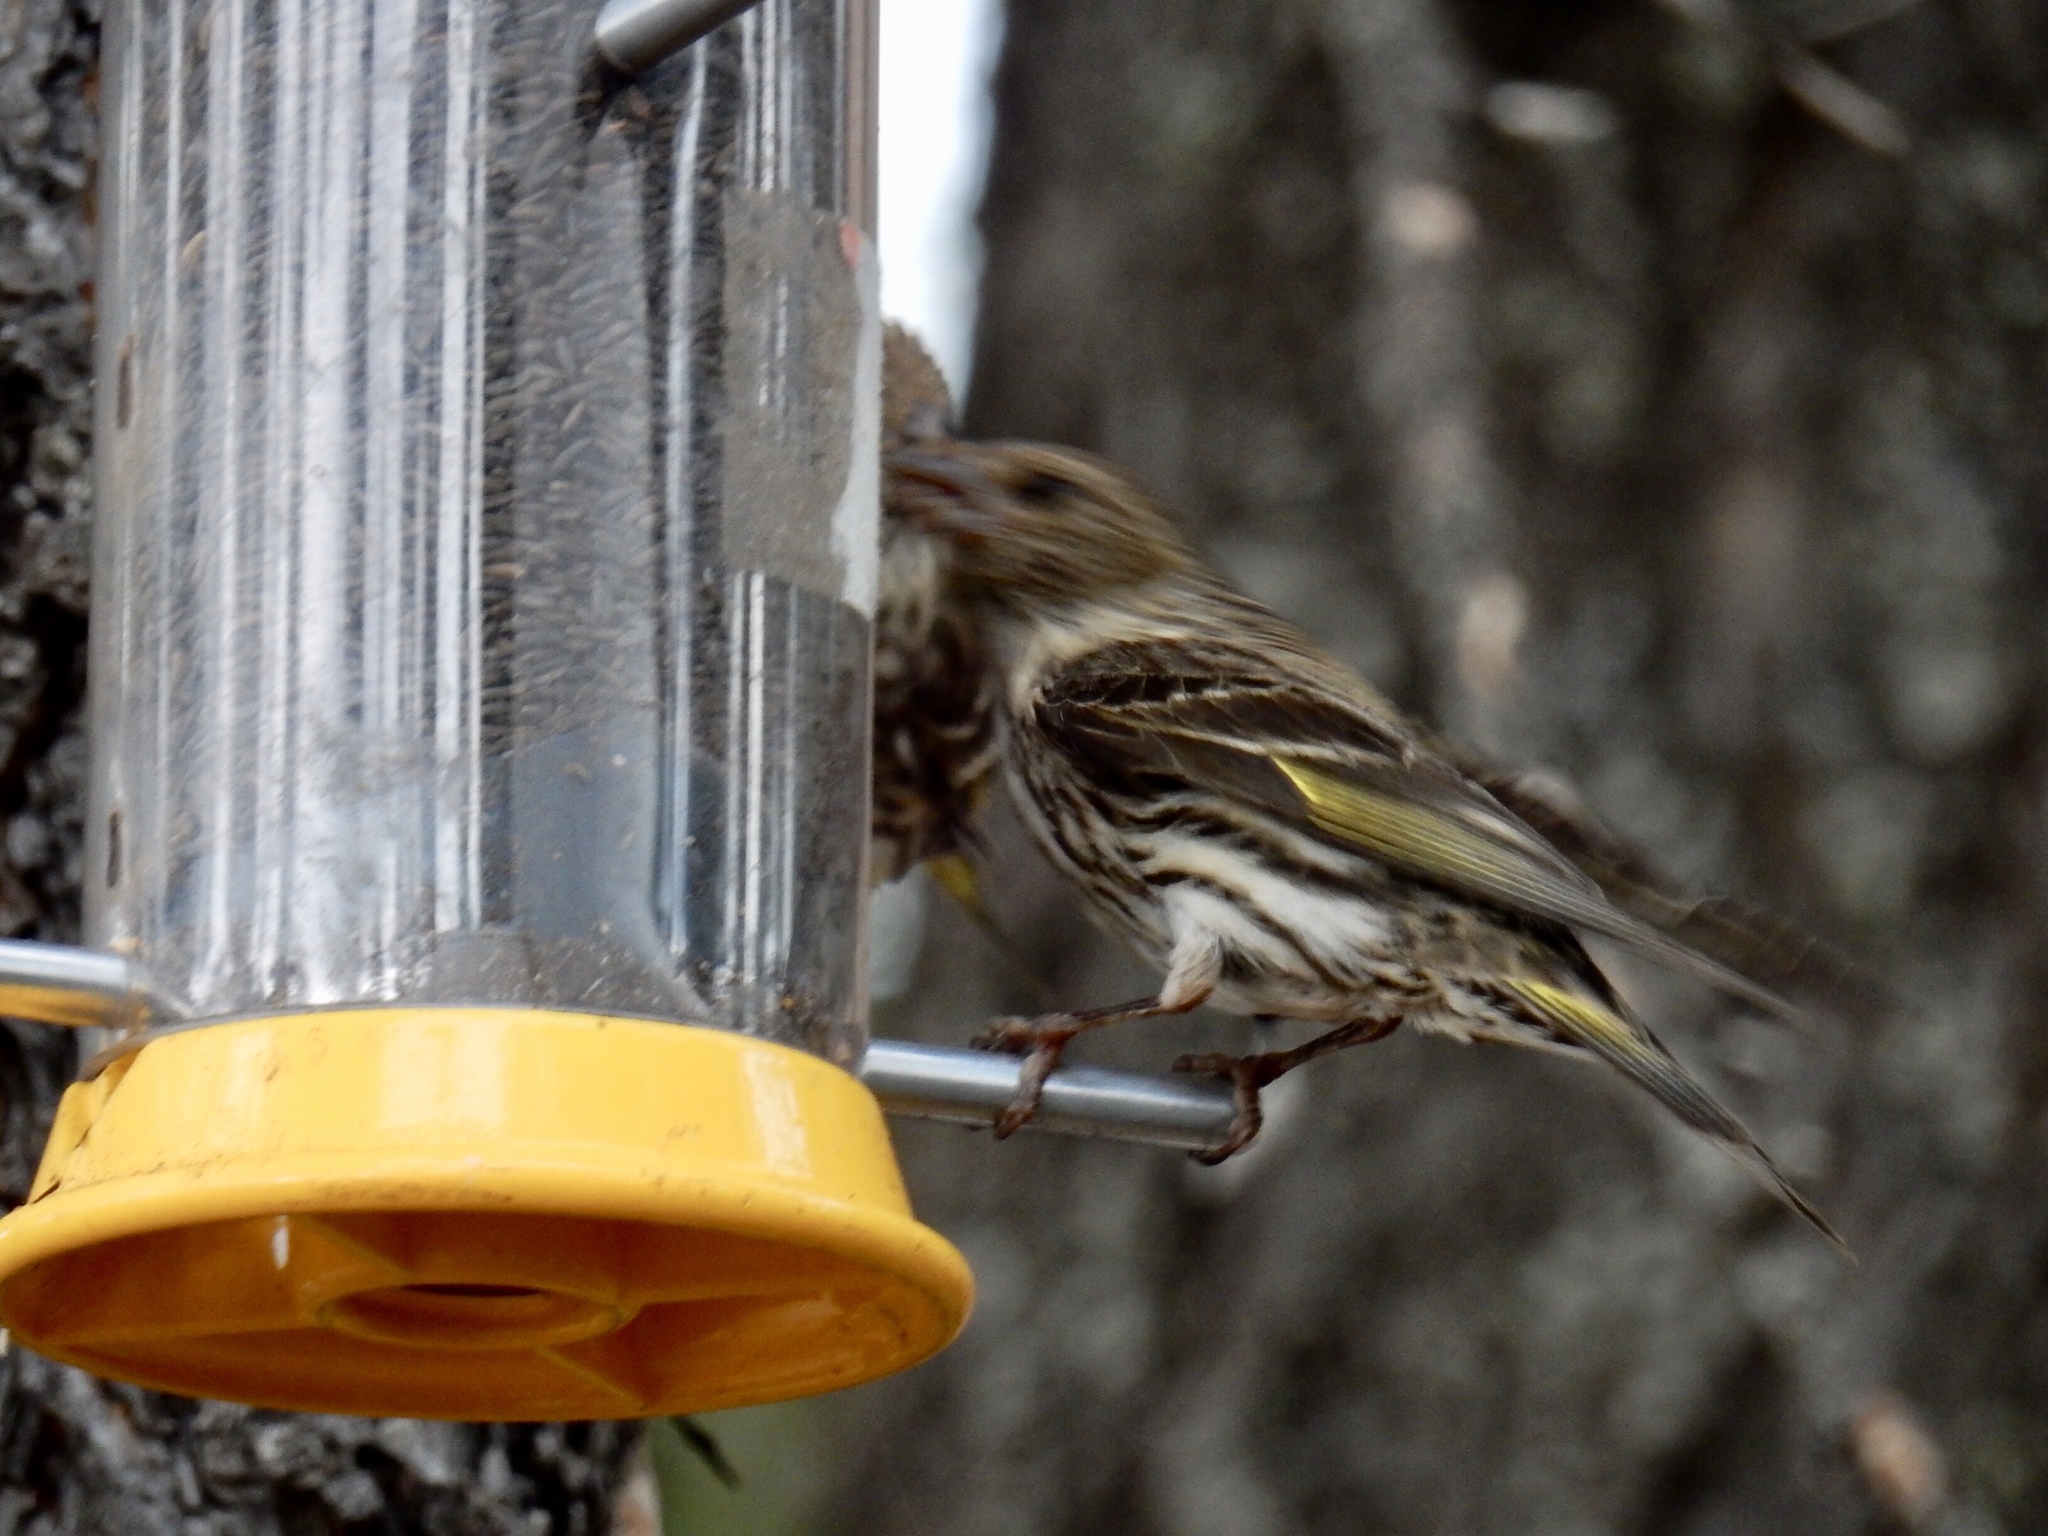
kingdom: Animalia
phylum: Chordata
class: Aves
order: Passeriformes
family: Fringillidae
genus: Spinus
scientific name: Spinus pinus
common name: Pine siskin
